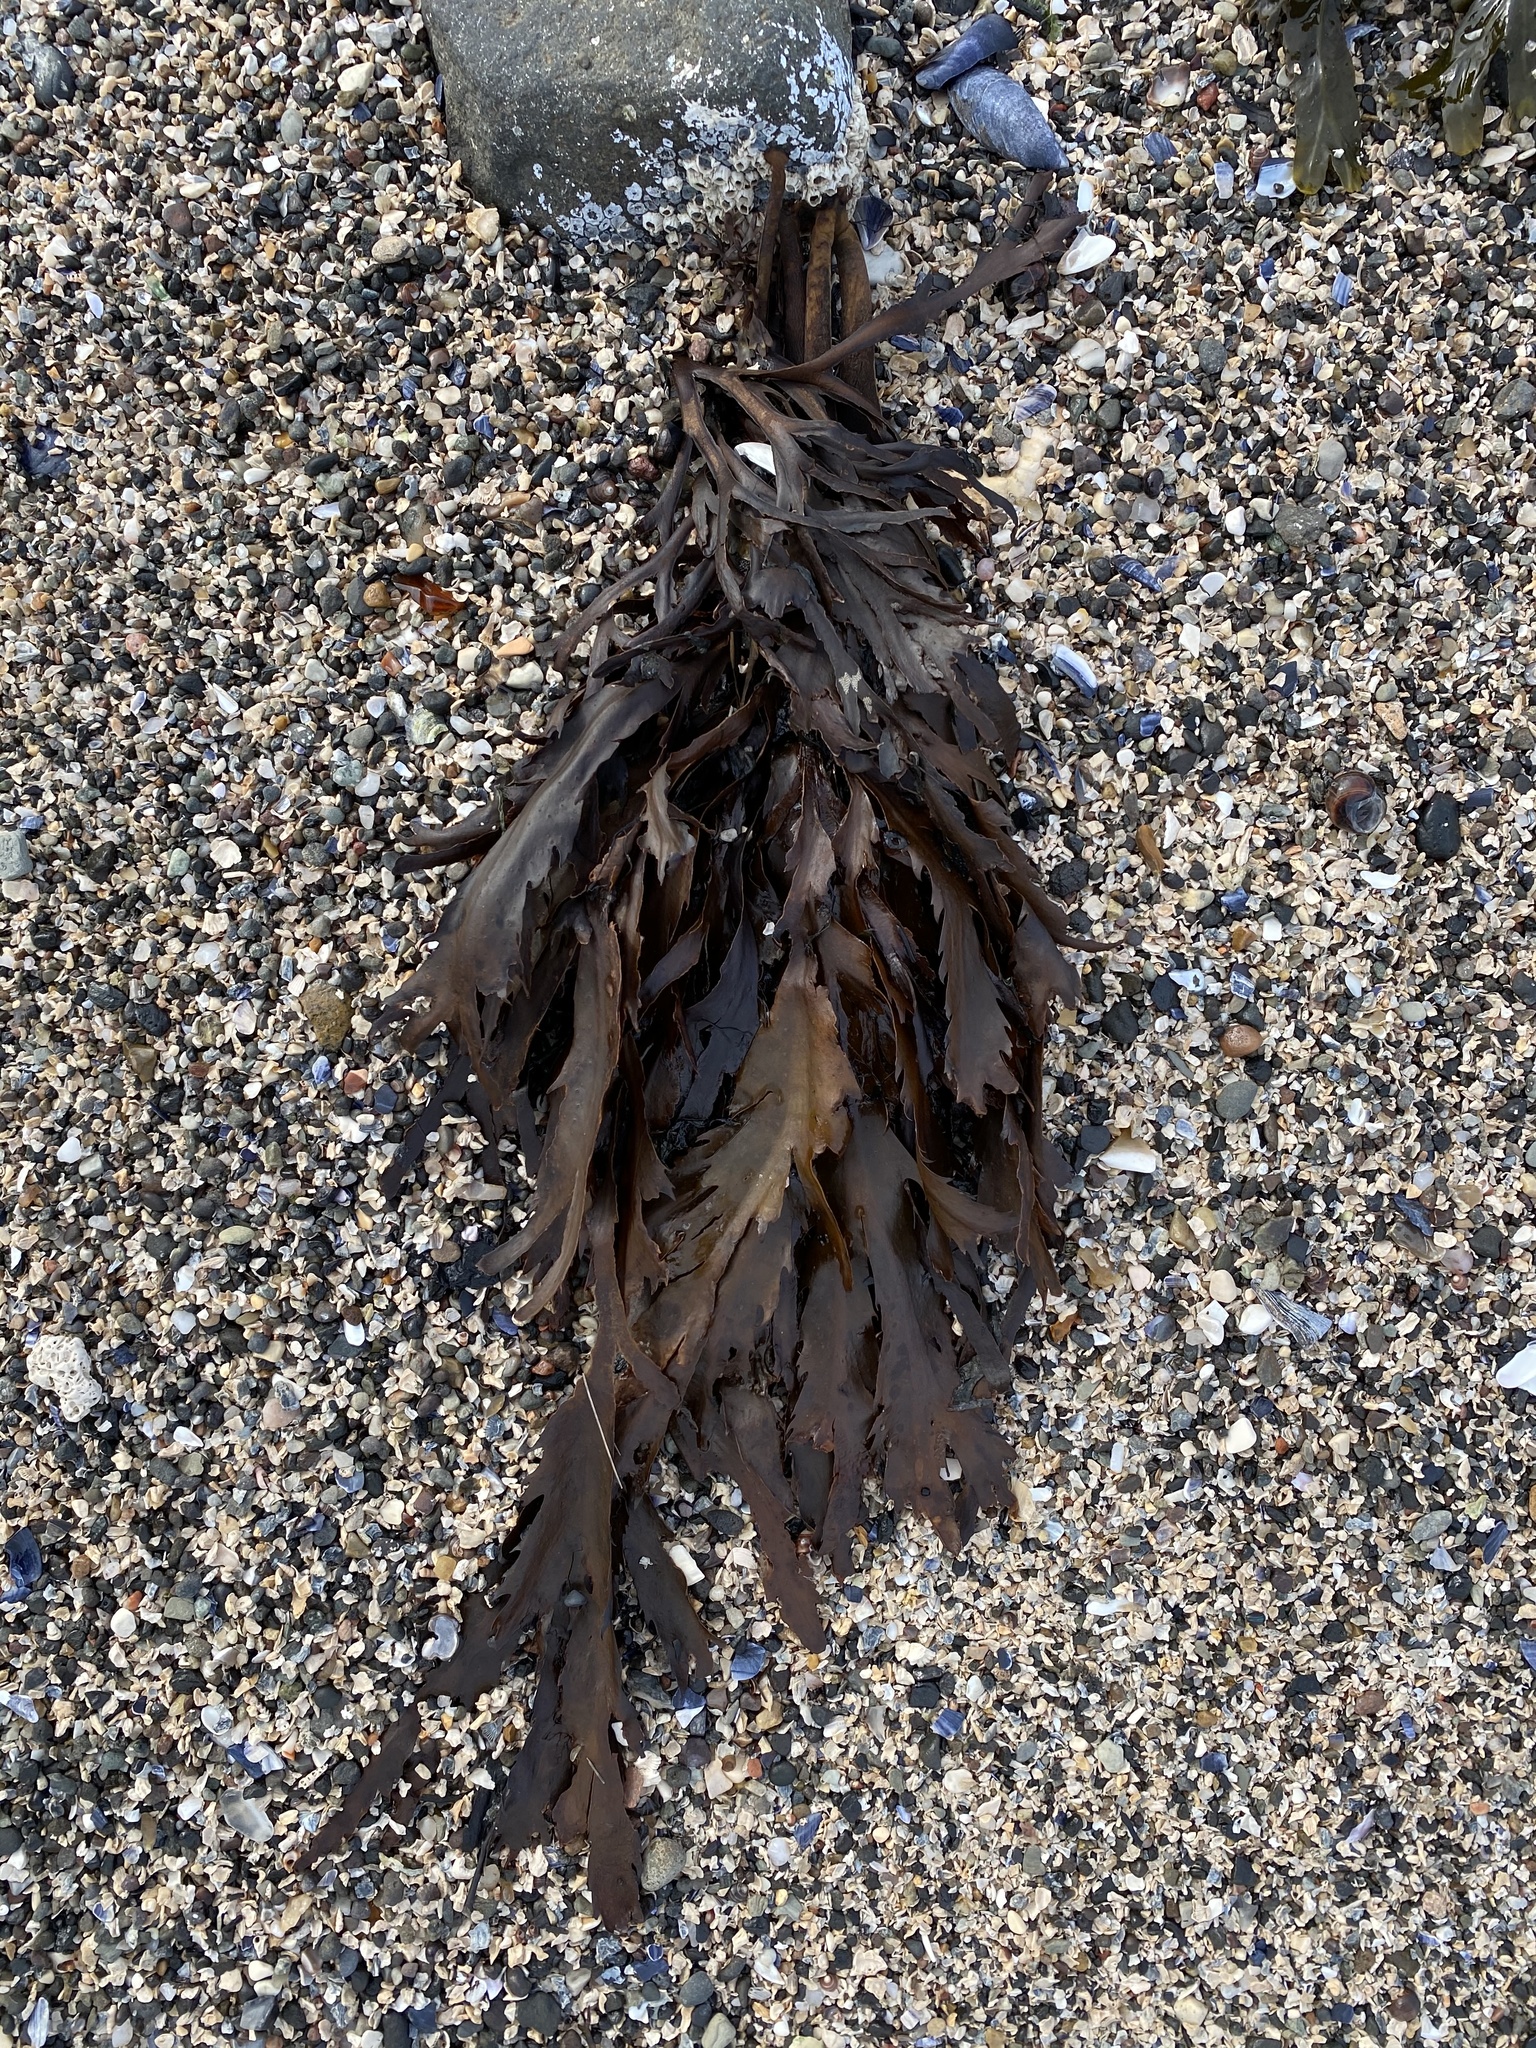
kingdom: Chromista
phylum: Ochrophyta
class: Phaeophyceae
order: Fucales
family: Fucaceae
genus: Fucus
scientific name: Fucus serratus
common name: Toothed wrack
